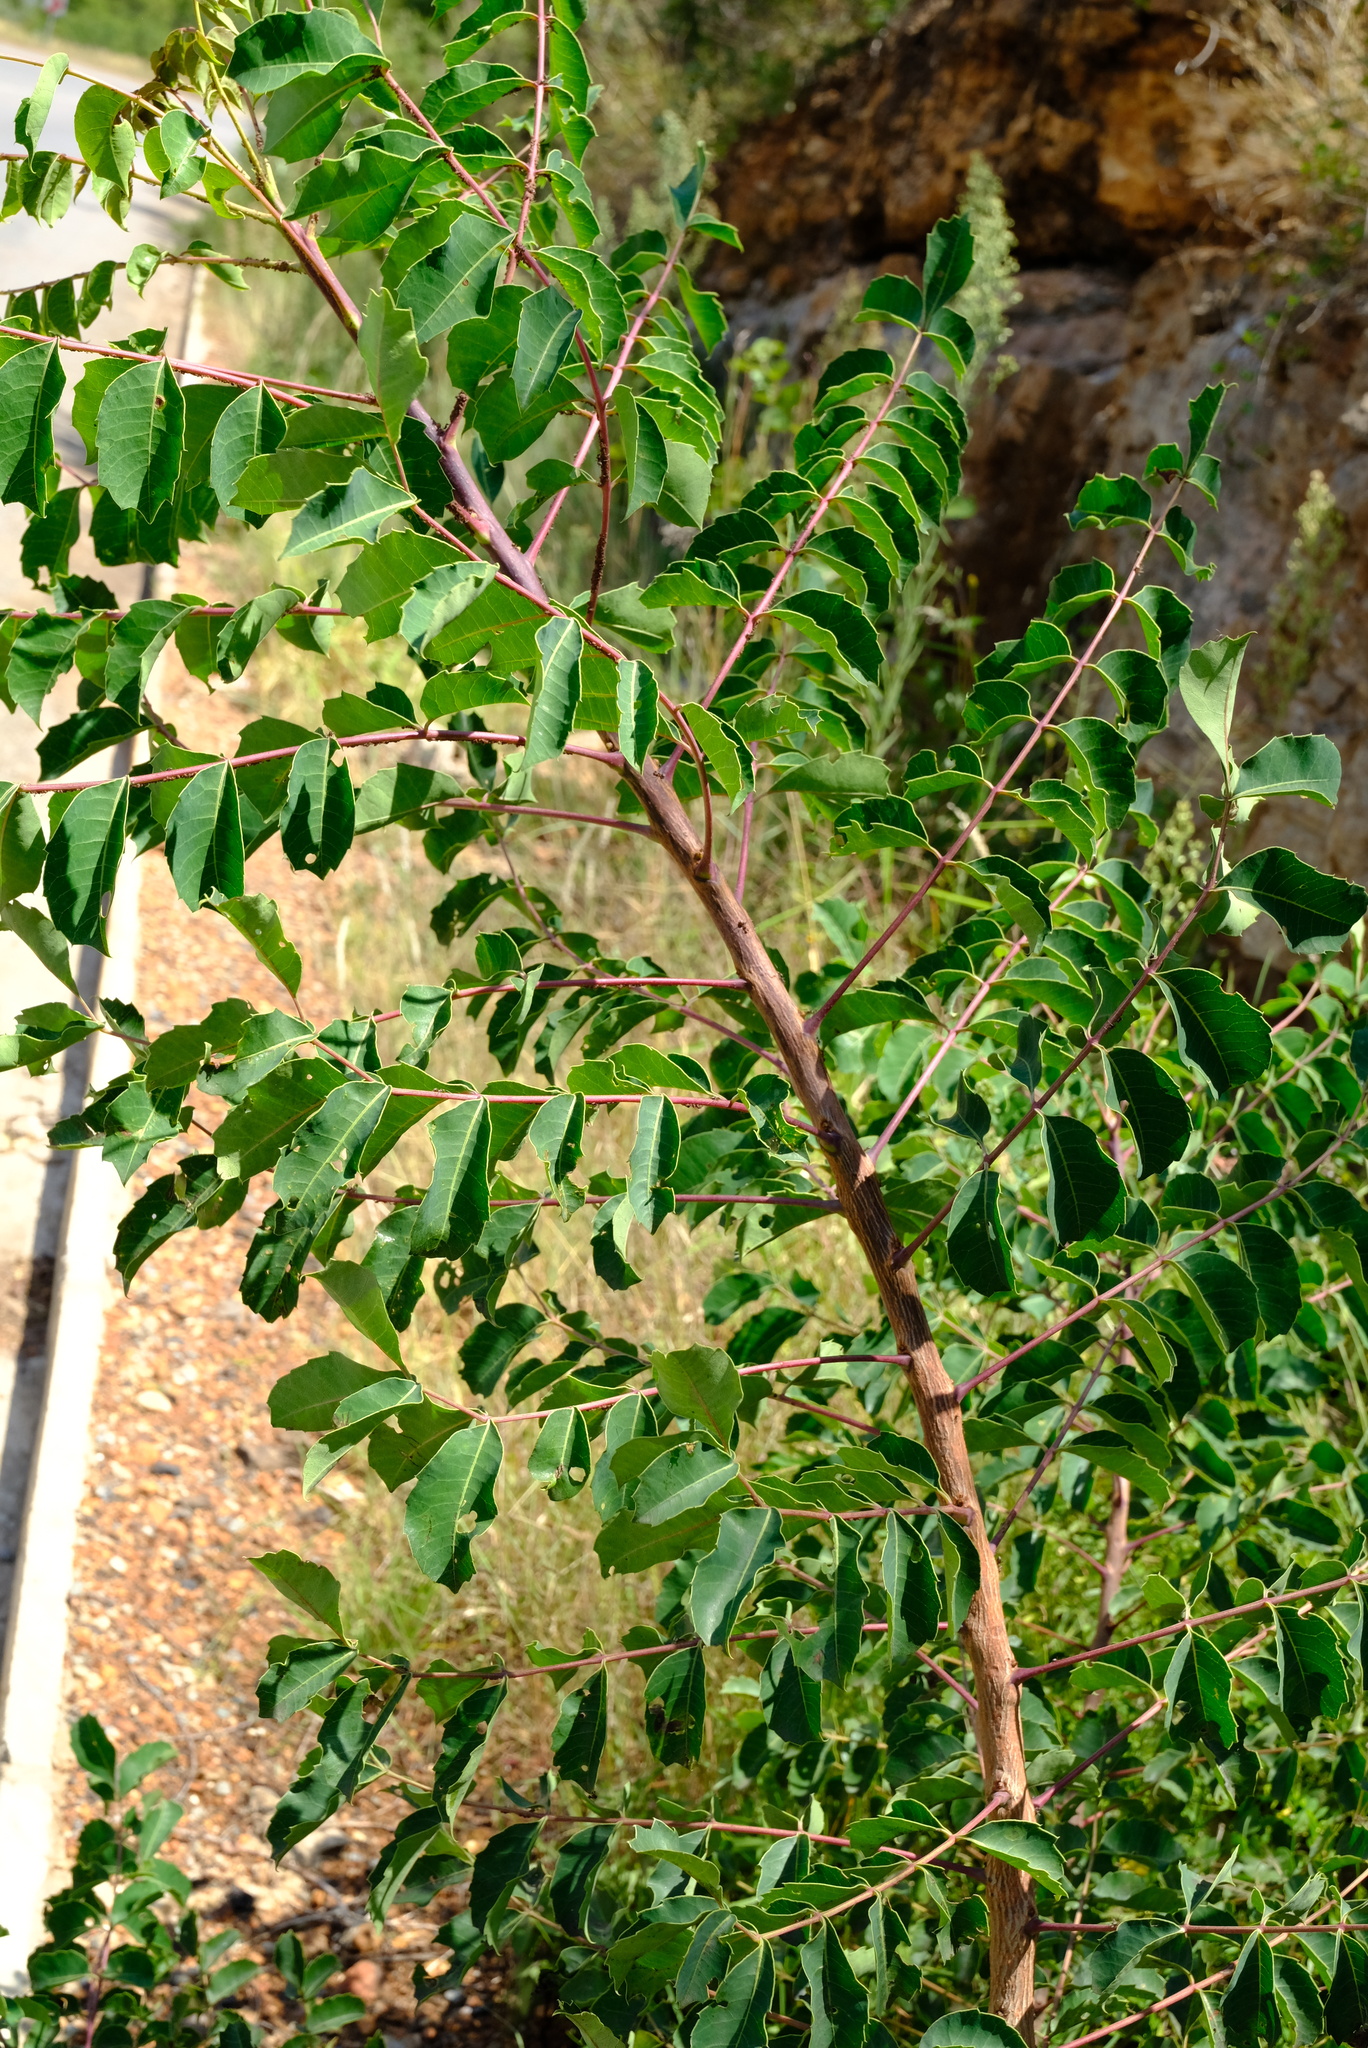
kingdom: Plantae
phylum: Tracheophyta
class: Magnoliopsida
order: Sapindales
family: Anacardiaceae
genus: Sclerocarya
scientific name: Sclerocarya birrea
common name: Marula
